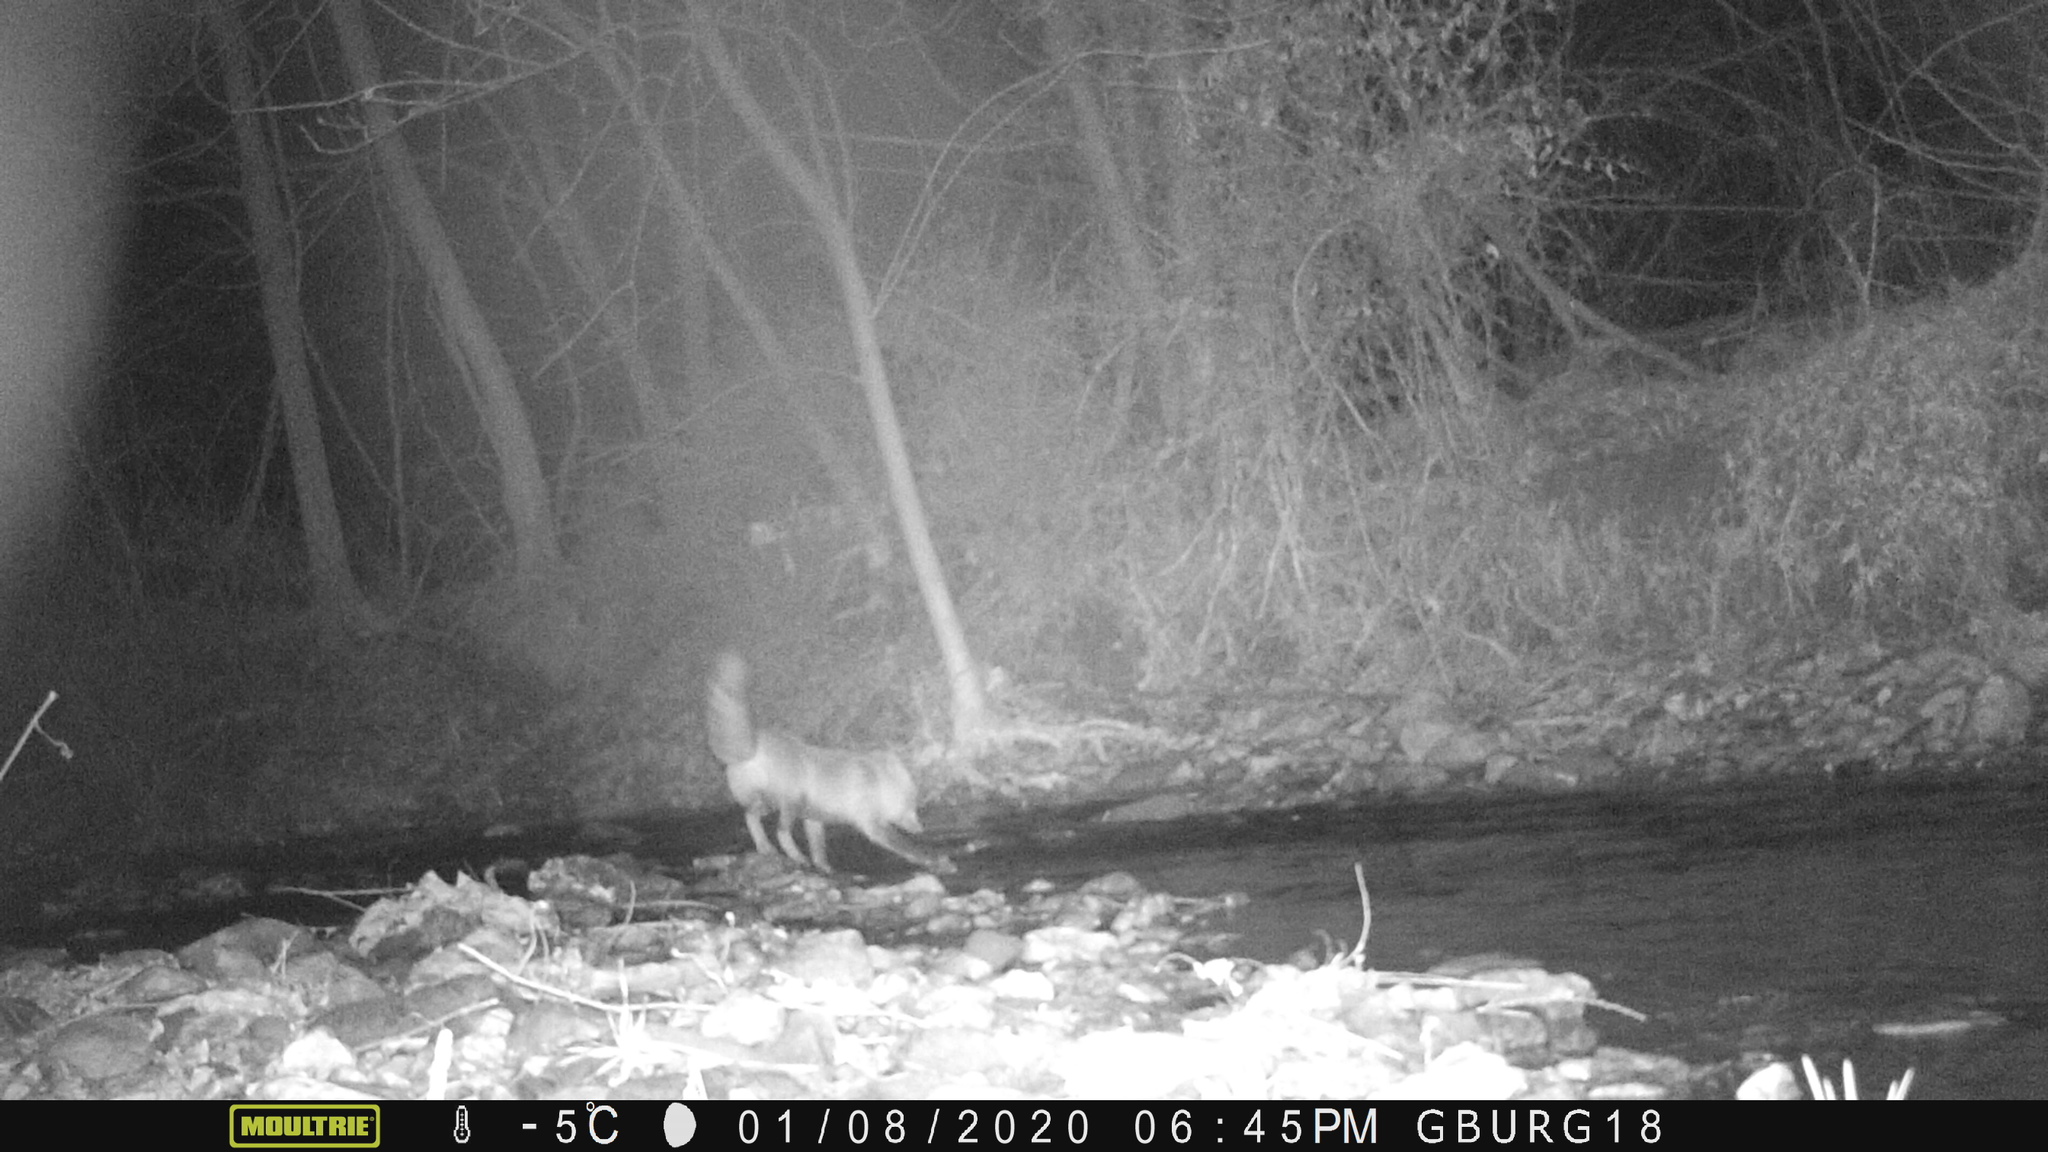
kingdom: Animalia
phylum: Chordata
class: Mammalia
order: Carnivora
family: Canidae
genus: Vulpes
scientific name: Vulpes vulpes
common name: Red fox
